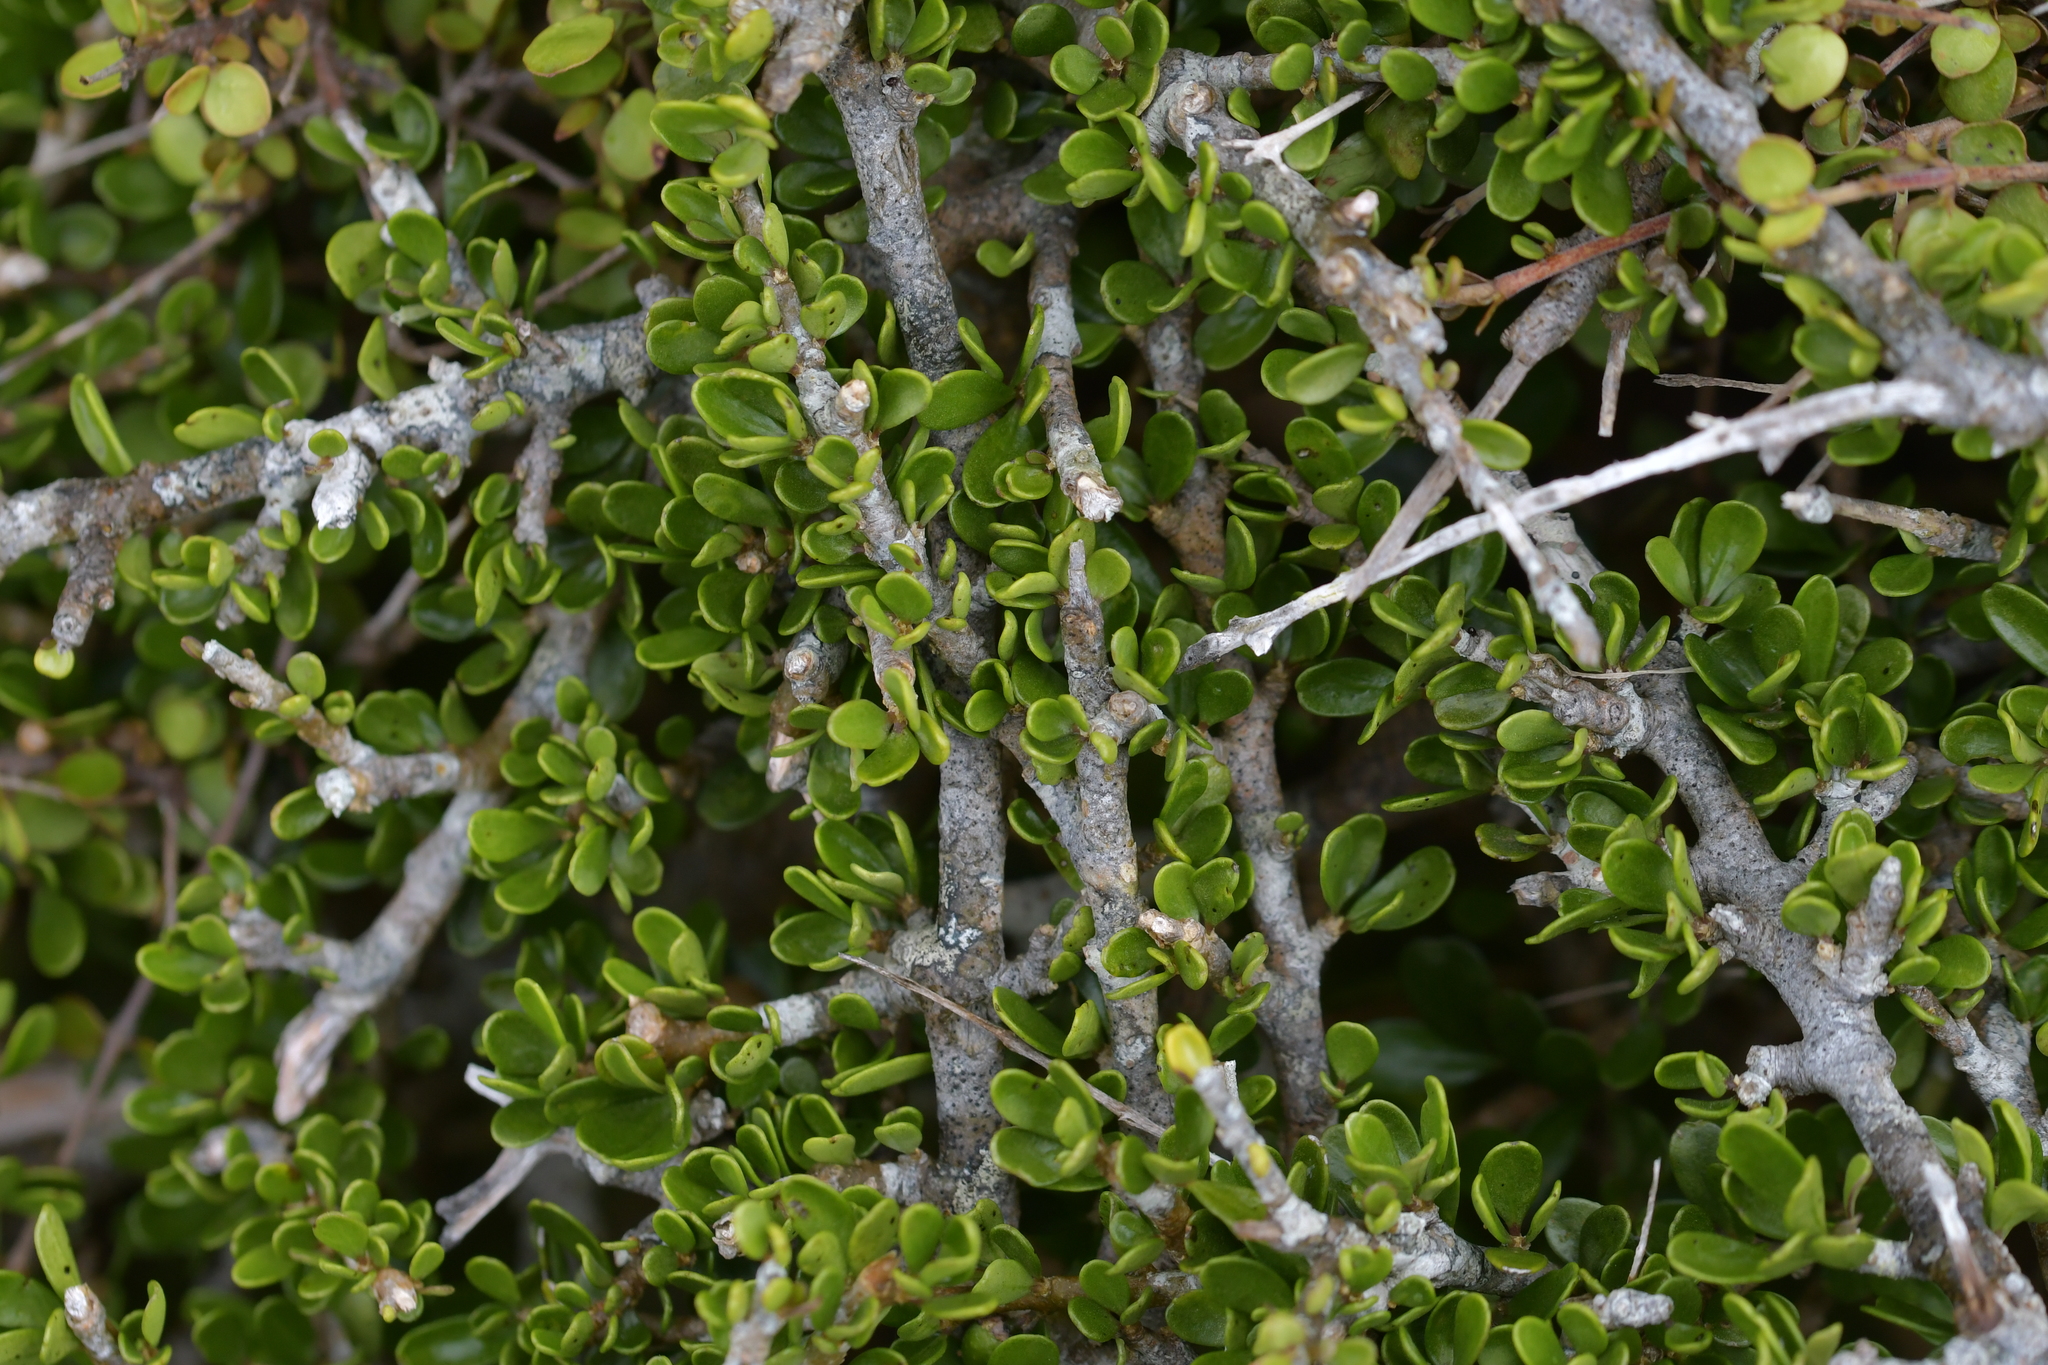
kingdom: Plantae
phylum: Tracheophyta
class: Magnoliopsida
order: Malpighiales
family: Violaceae
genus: Melicytus
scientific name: Melicytus crassifolius
